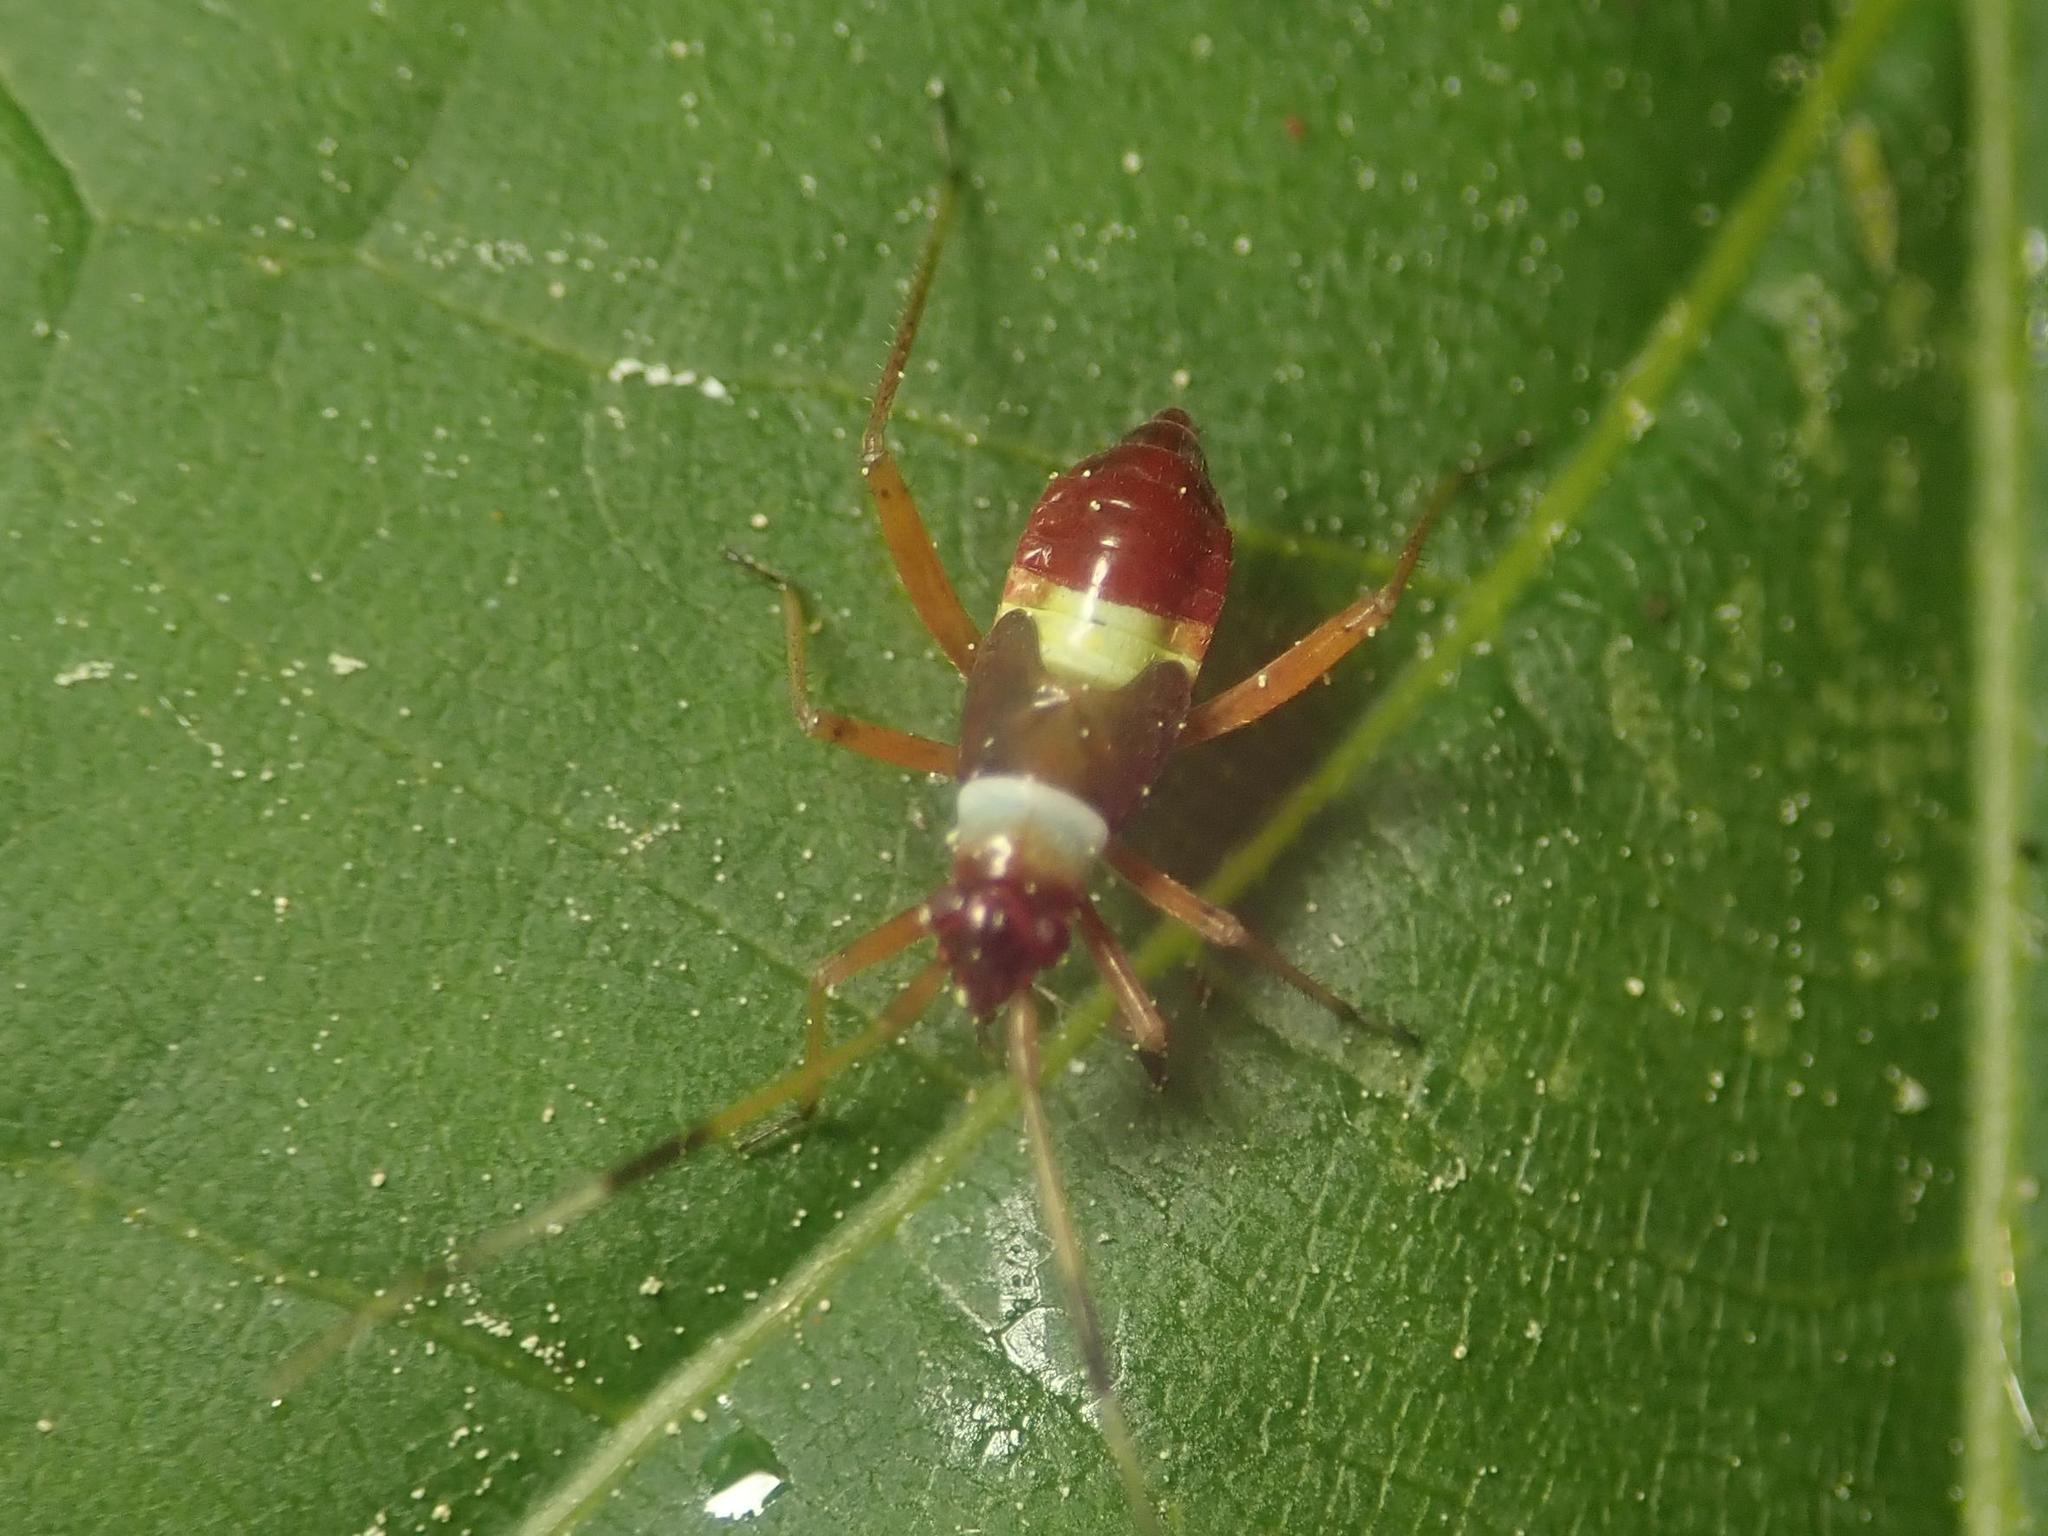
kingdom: Animalia
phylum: Arthropoda
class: Insecta
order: Hemiptera
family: Miridae
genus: Closterotomus
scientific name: Closterotomus biclavatus
